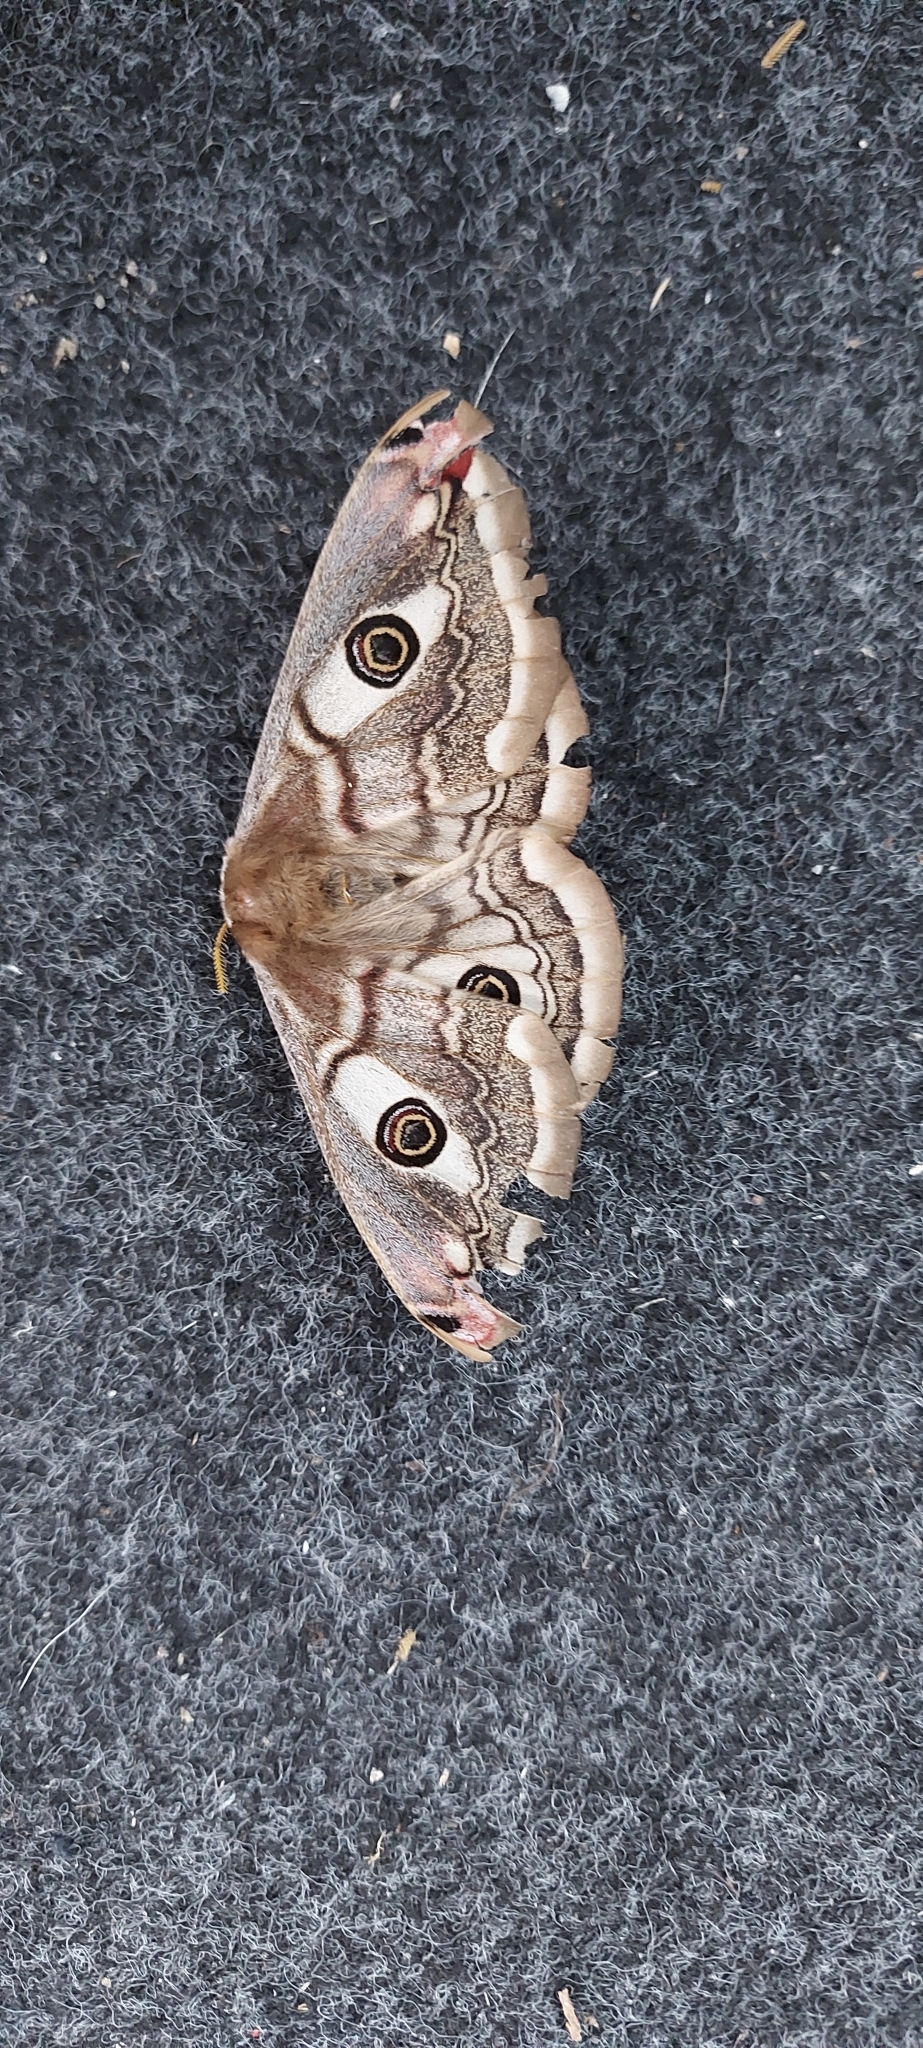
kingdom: Animalia
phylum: Arthropoda
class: Insecta
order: Lepidoptera
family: Saturniidae
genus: Saturnia
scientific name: Saturnia pavoniella
